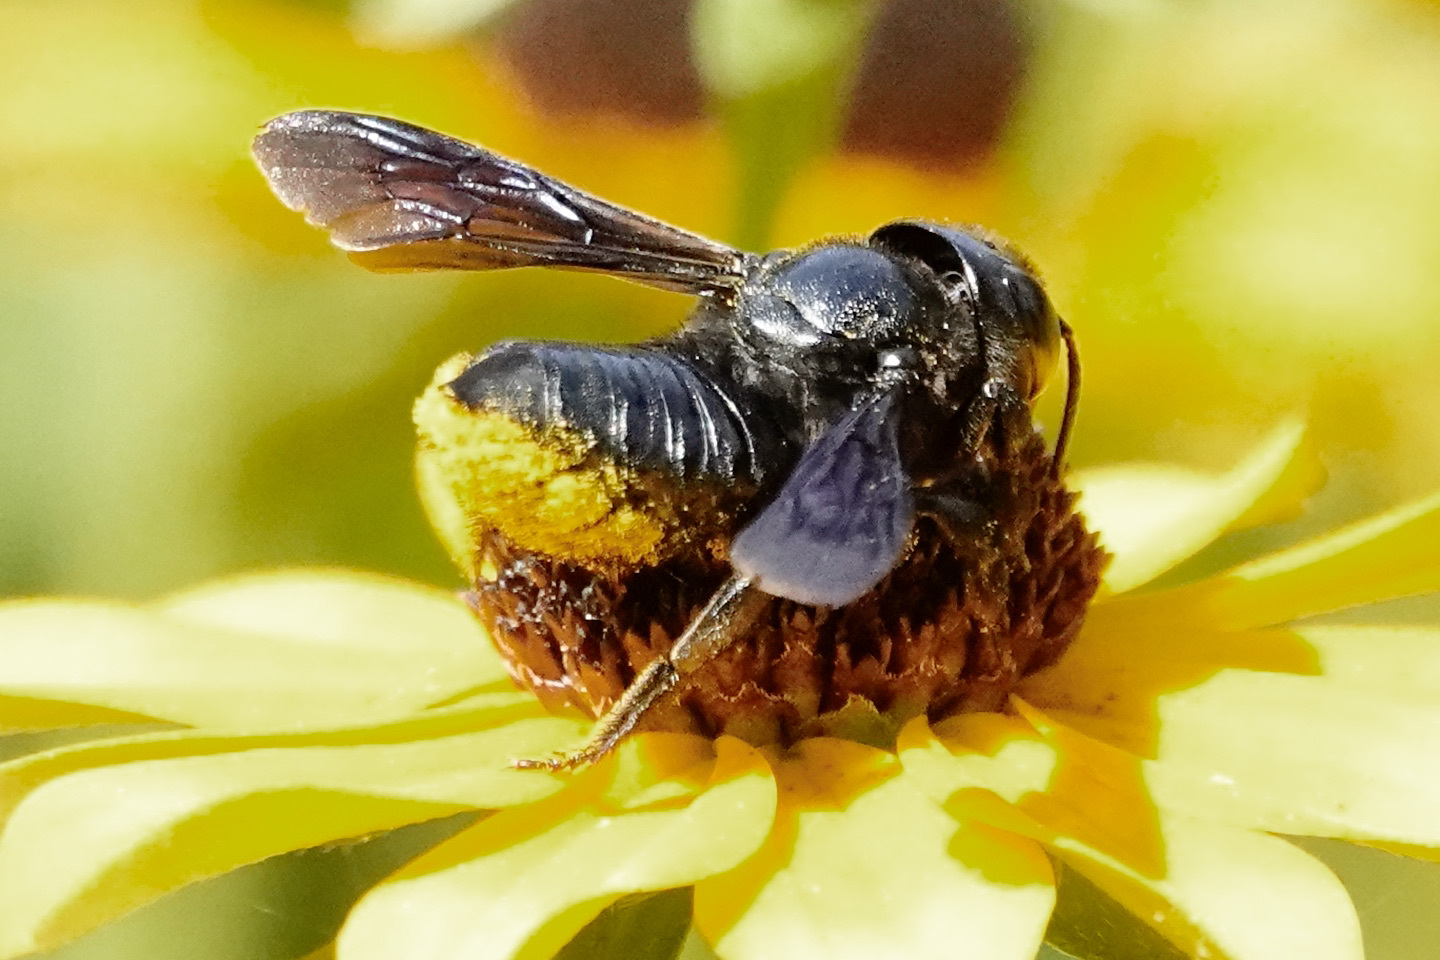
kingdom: Animalia
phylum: Arthropoda
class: Insecta
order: Hymenoptera
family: Megachilidae
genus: Megachile
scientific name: Megachile xylocopoides
